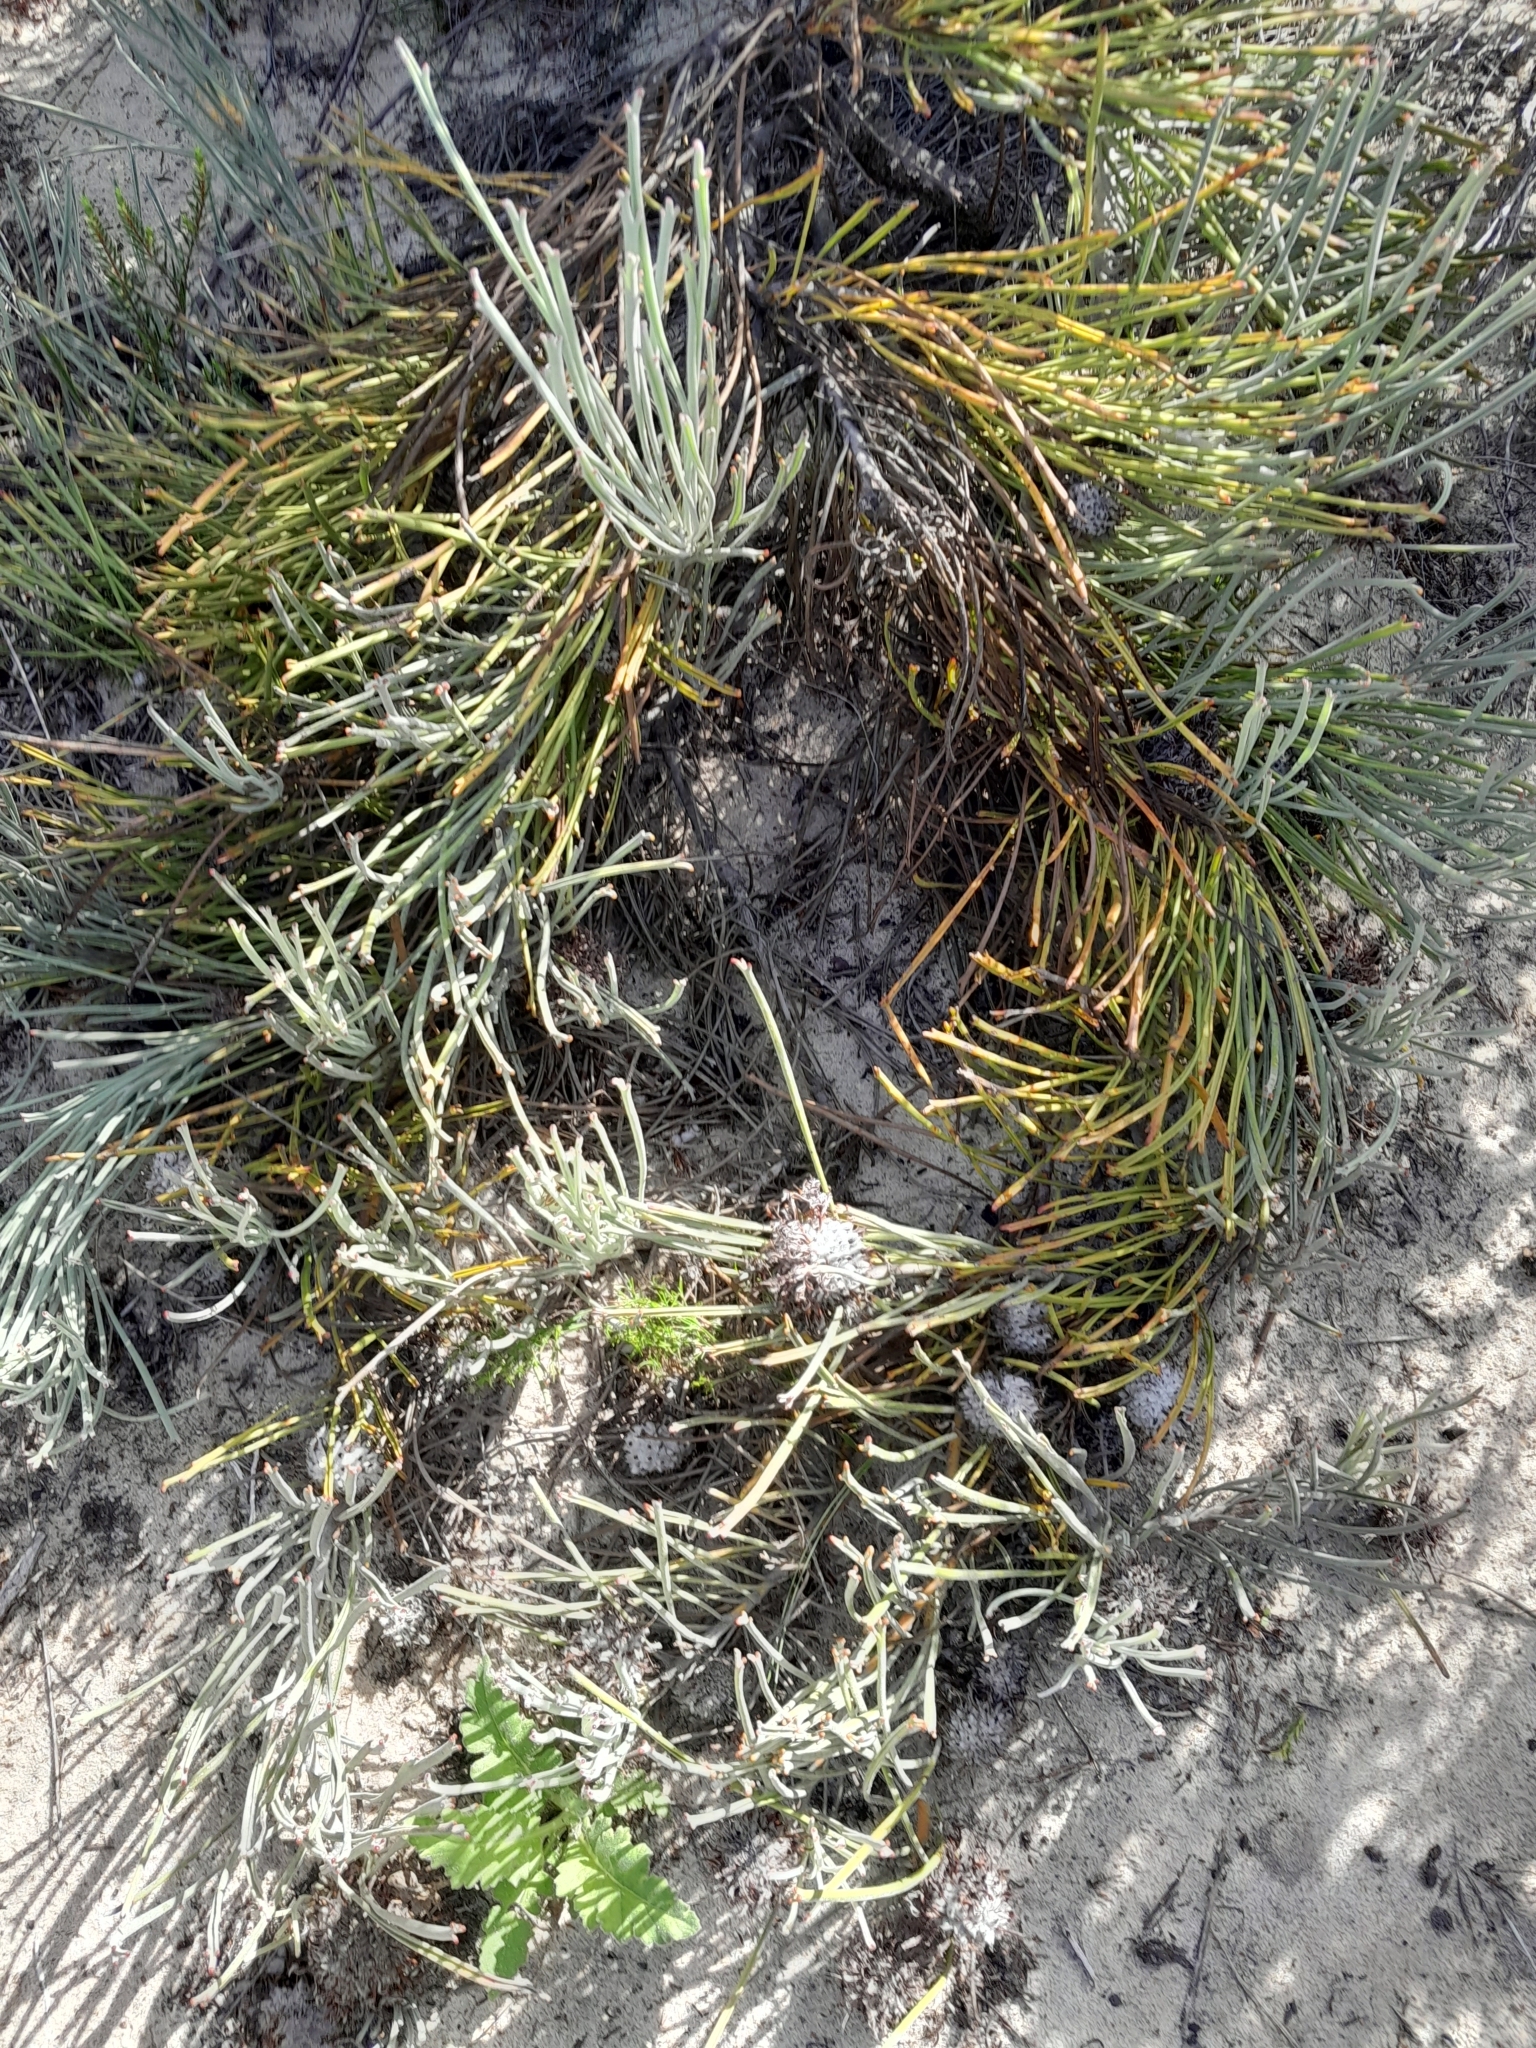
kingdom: Plantae
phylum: Tracheophyta
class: Magnoliopsida
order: Proteales
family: Proteaceae
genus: Leucospermum
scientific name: Leucospermum hypophyllocarpodendron
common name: Snakestem pincushion
